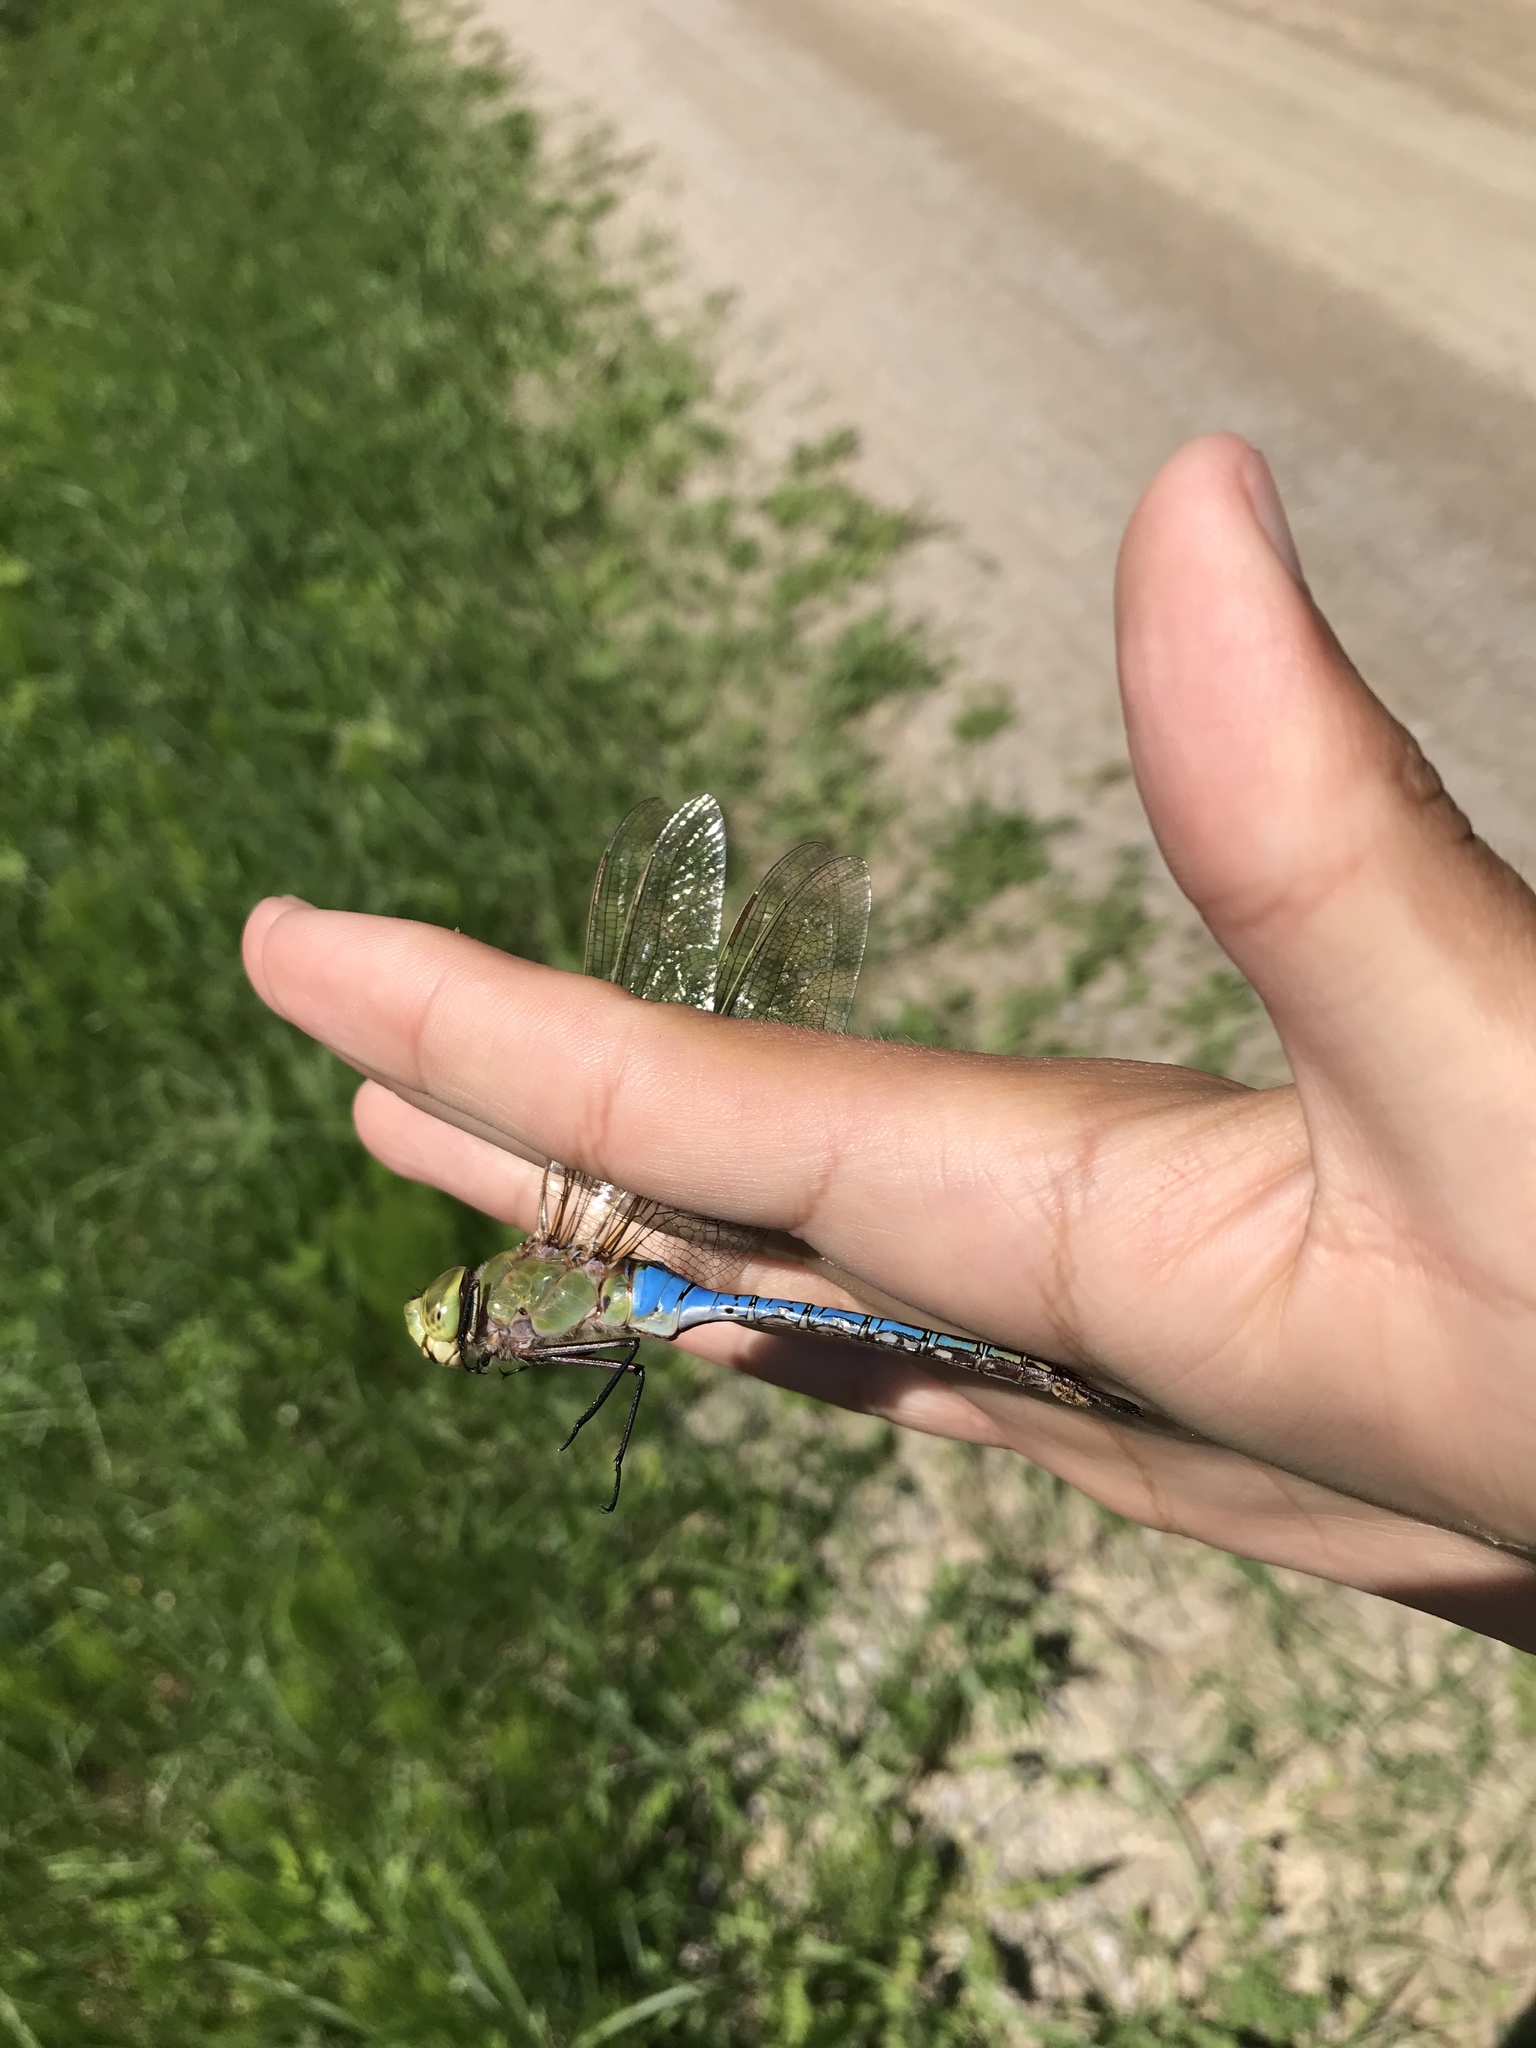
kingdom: Animalia
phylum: Arthropoda
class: Insecta
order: Odonata
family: Aeshnidae
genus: Anax
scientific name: Anax junius
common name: Common green darner
